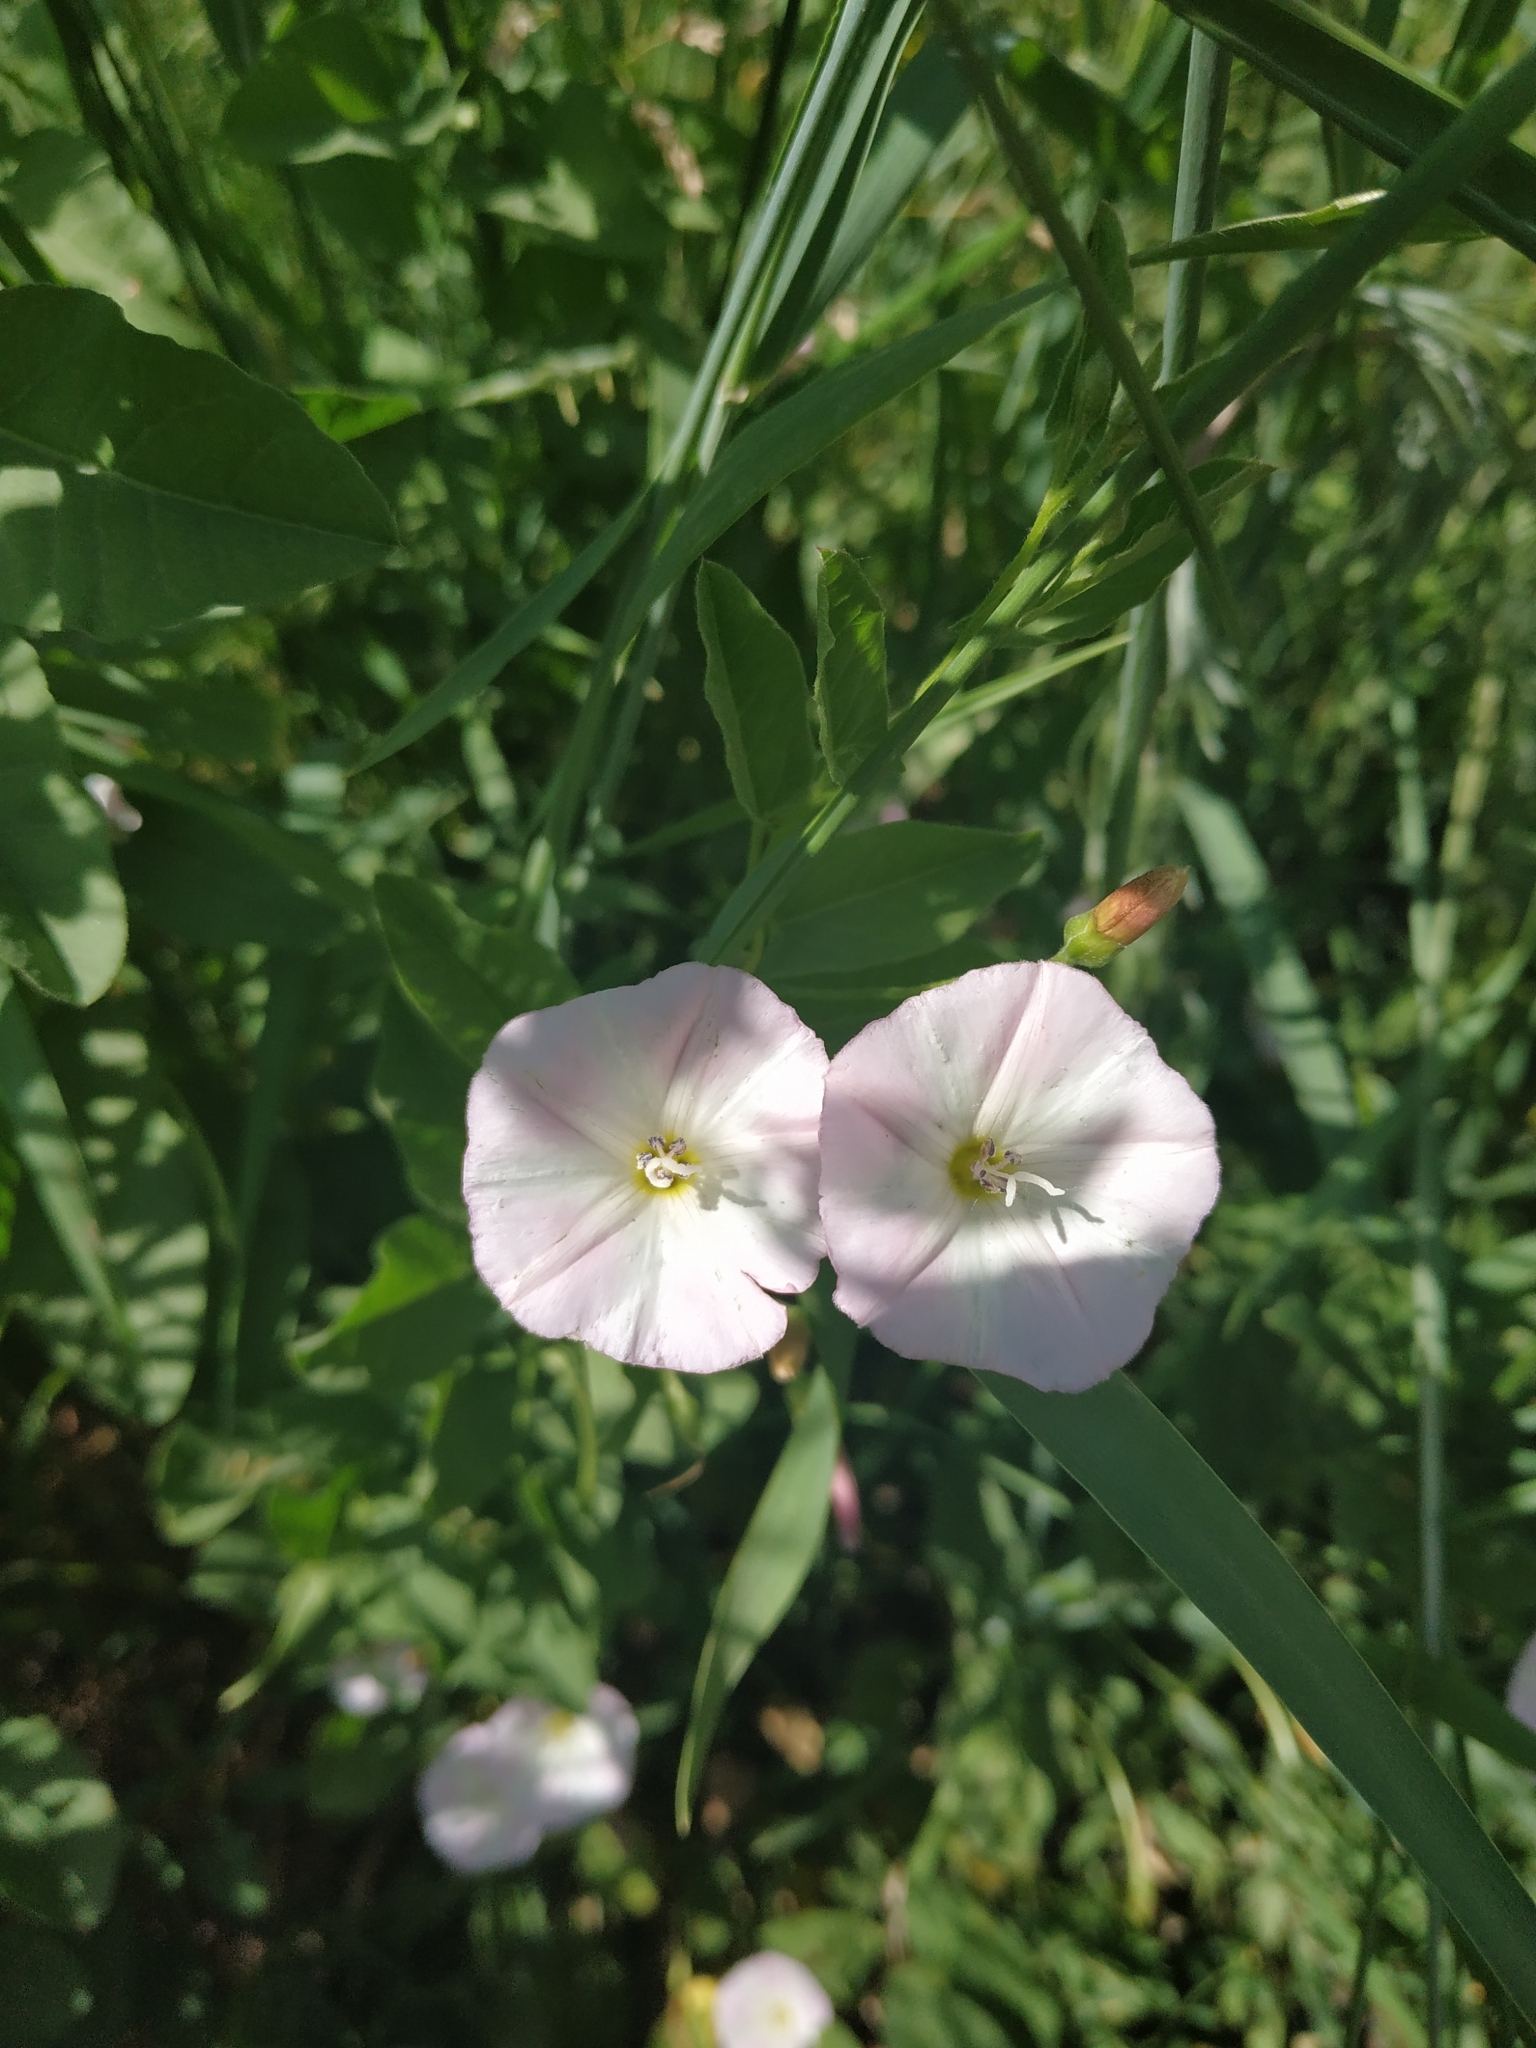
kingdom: Plantae
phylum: Tracheophyta
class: Magnoliopsida
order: Solanales
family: Convolvulaceae
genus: Convolvulus
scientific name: Convolvulus arvensis
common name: Field bindweed
